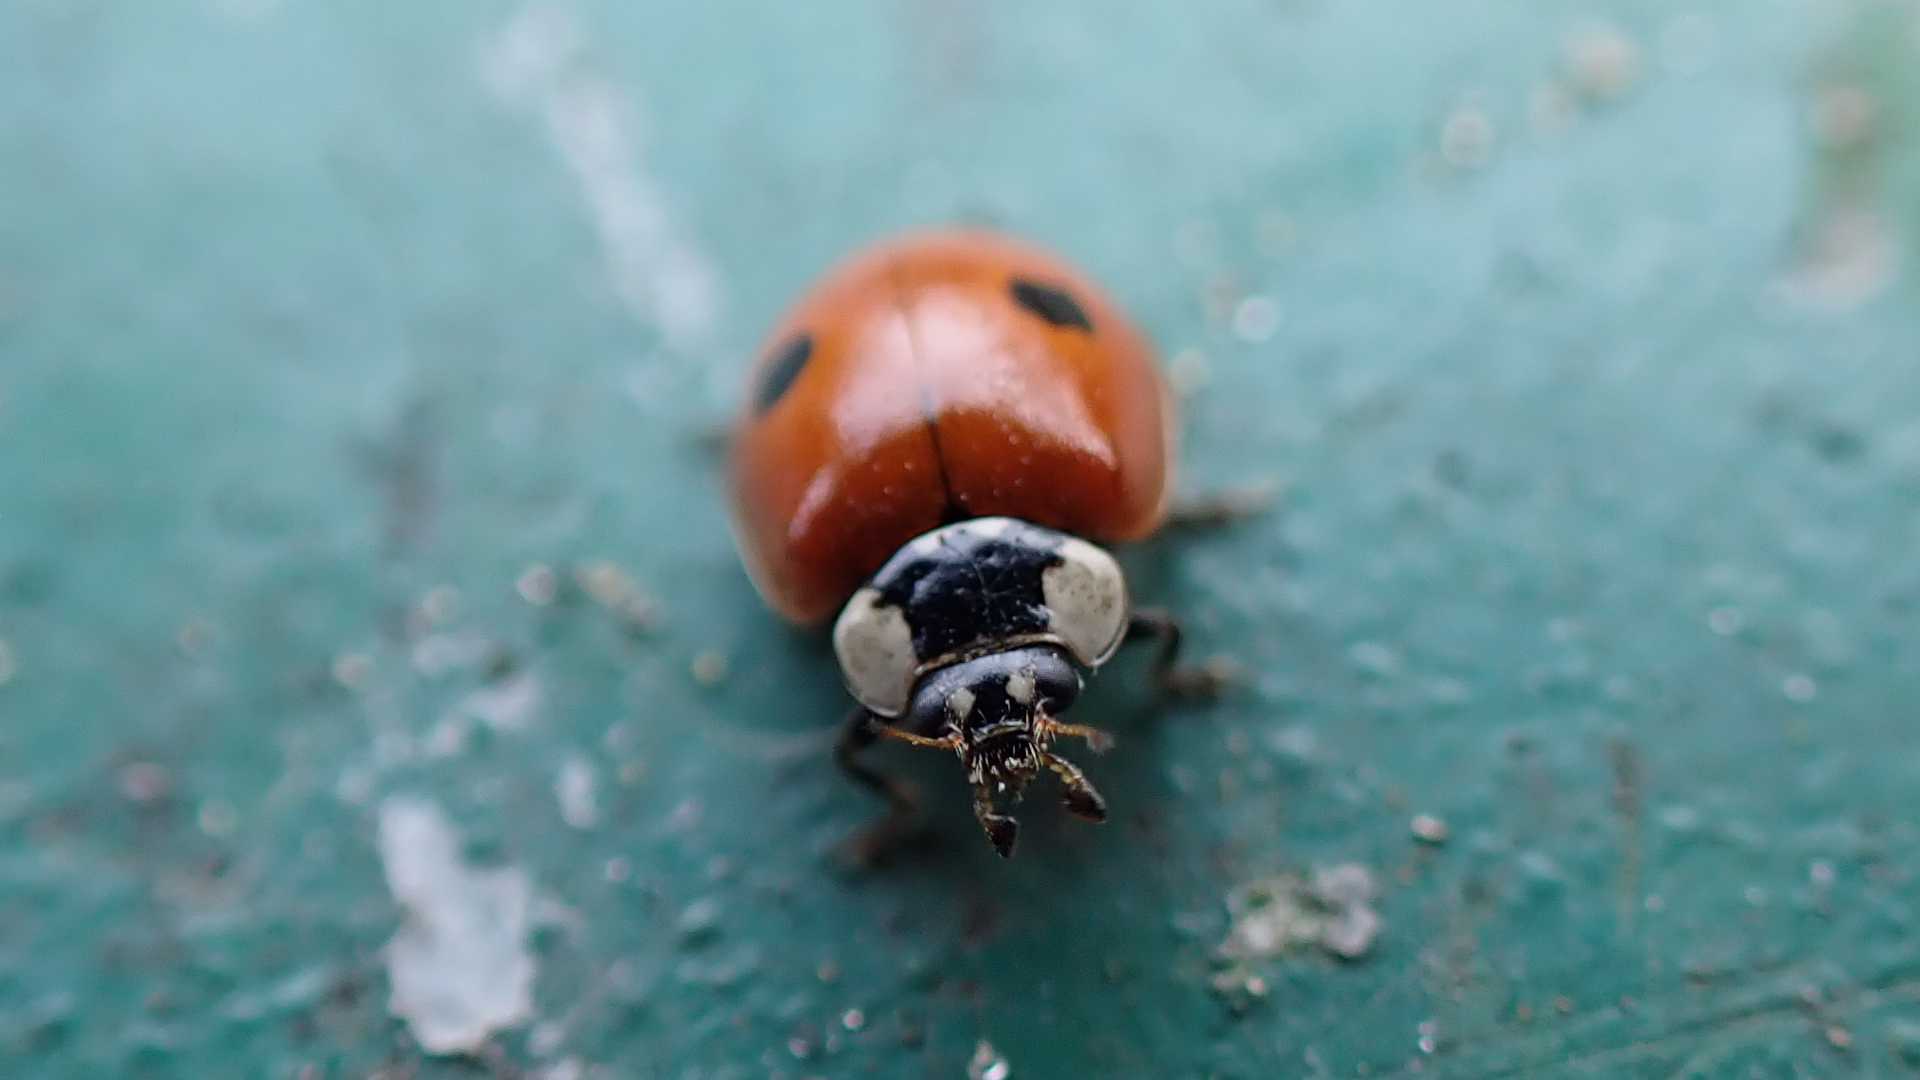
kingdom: Animalia
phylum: Arthropoda
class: Insecta
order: Coleoptera
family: Coccinellidae
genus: Adalia
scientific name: Adalia bipunctata
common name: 2-spot ladybird
